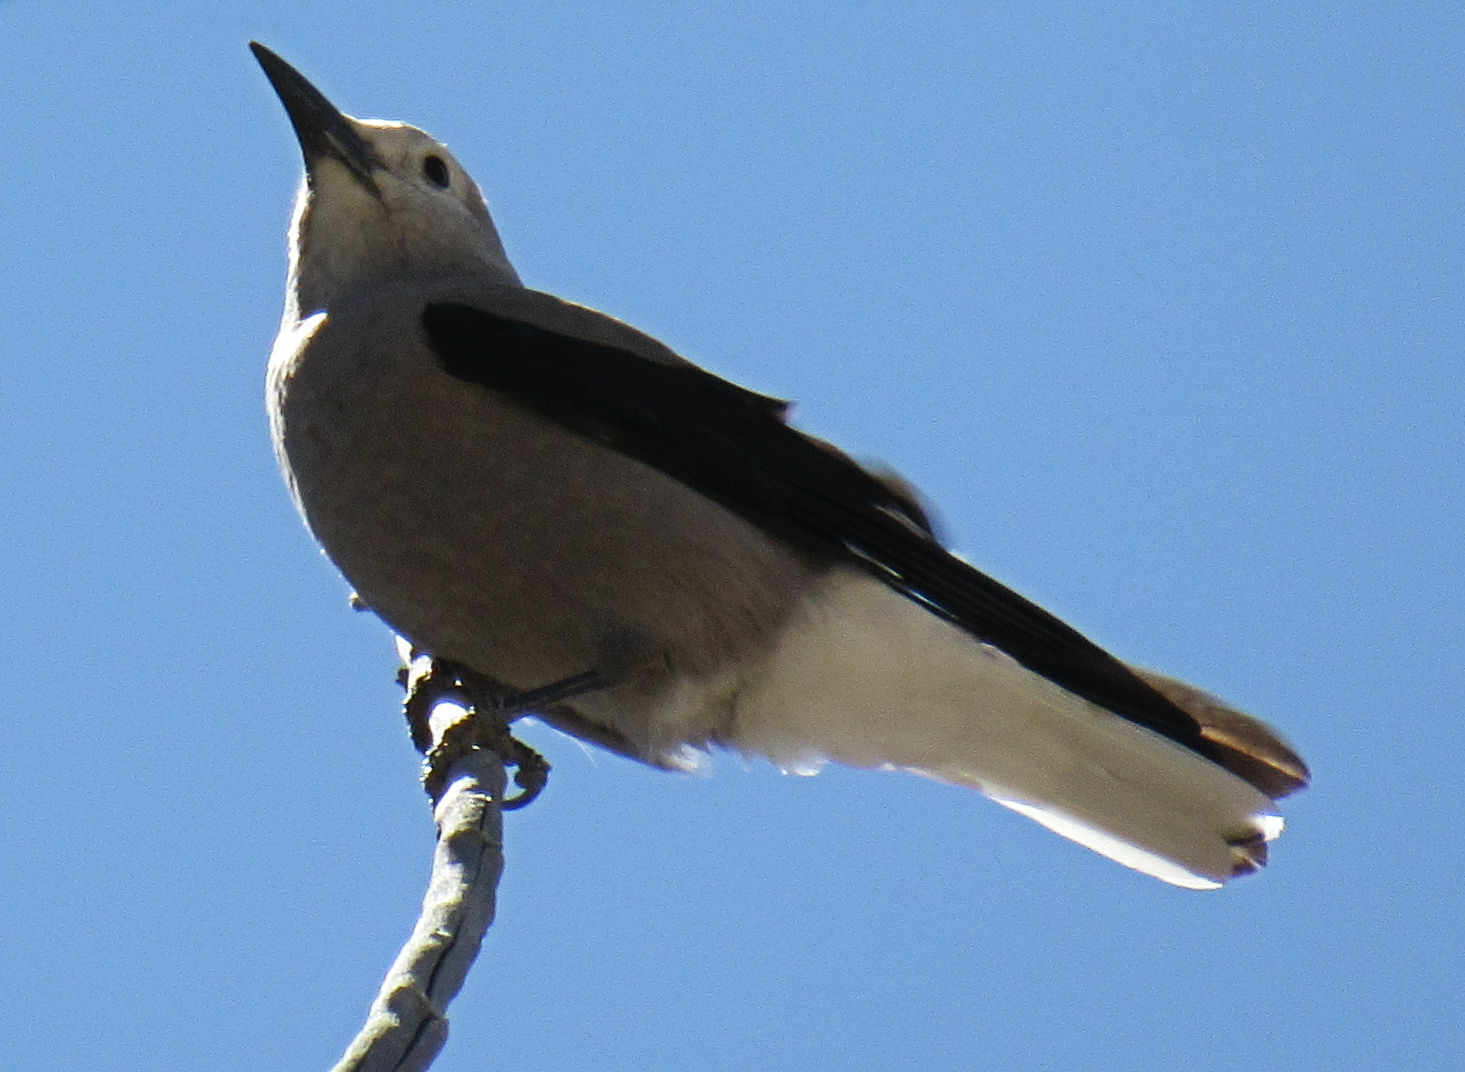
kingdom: Animalia
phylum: Chordata
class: Aves
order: Passeriformes
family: Corvidae
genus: Nucifraga
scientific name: Nucifraga columbiana
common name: Clark's nutcracker
